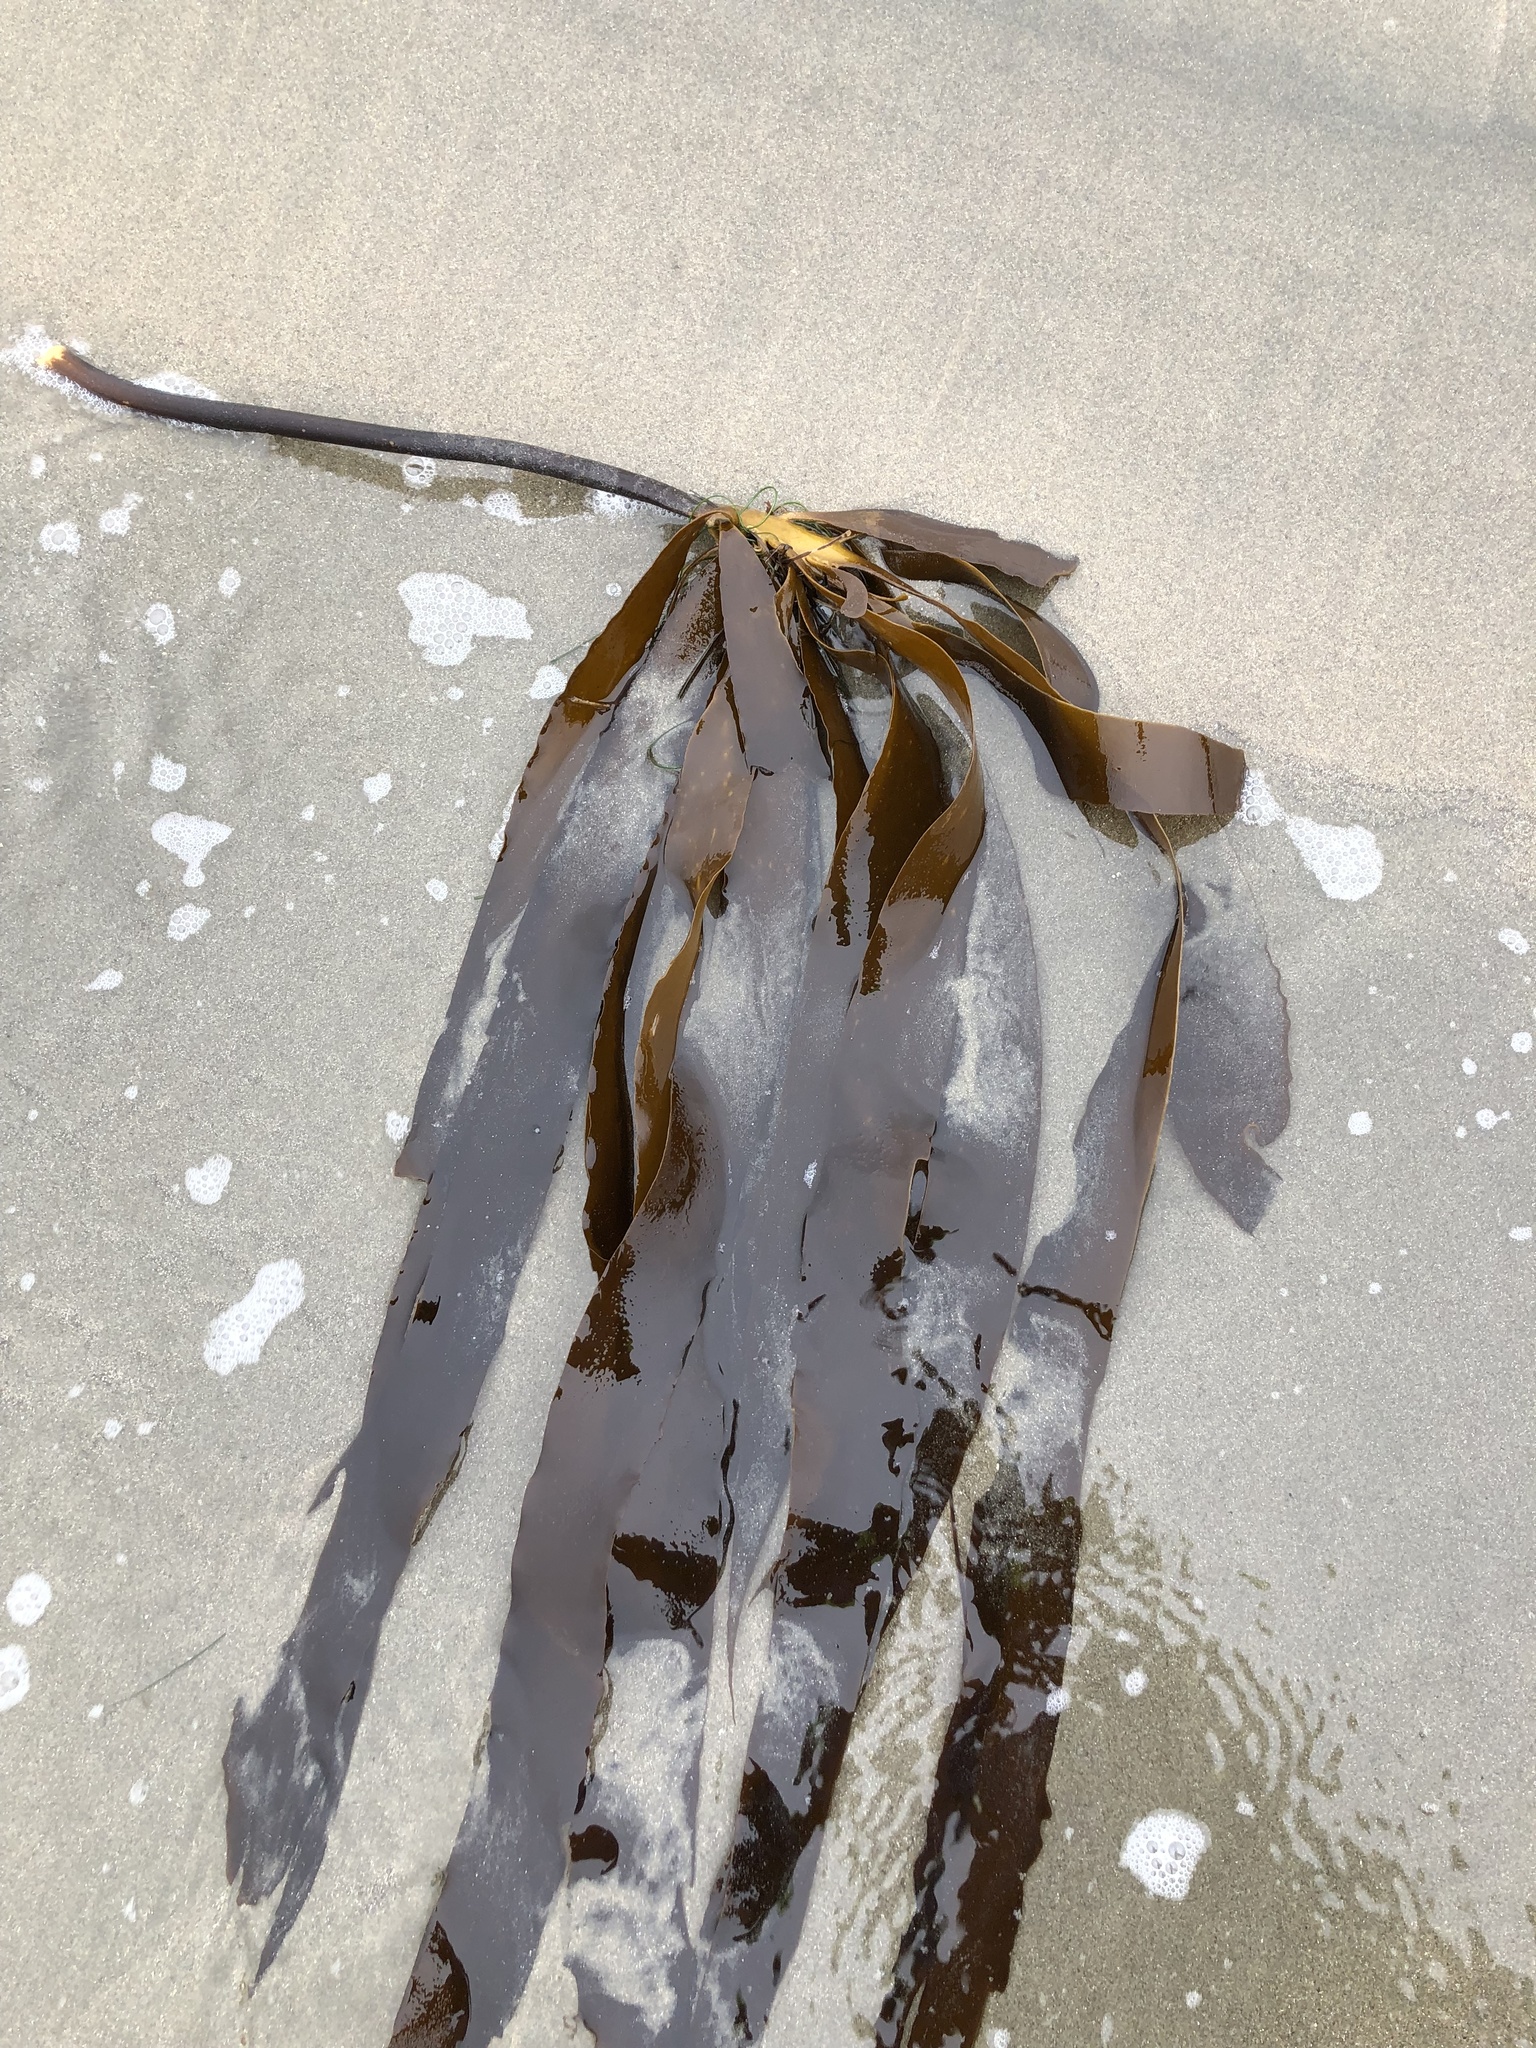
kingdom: Chromista
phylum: Ochrophyta
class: Phaeophyceae
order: Laminariales
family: Alariaceae
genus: Pterygophora
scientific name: Pterygophora californica
